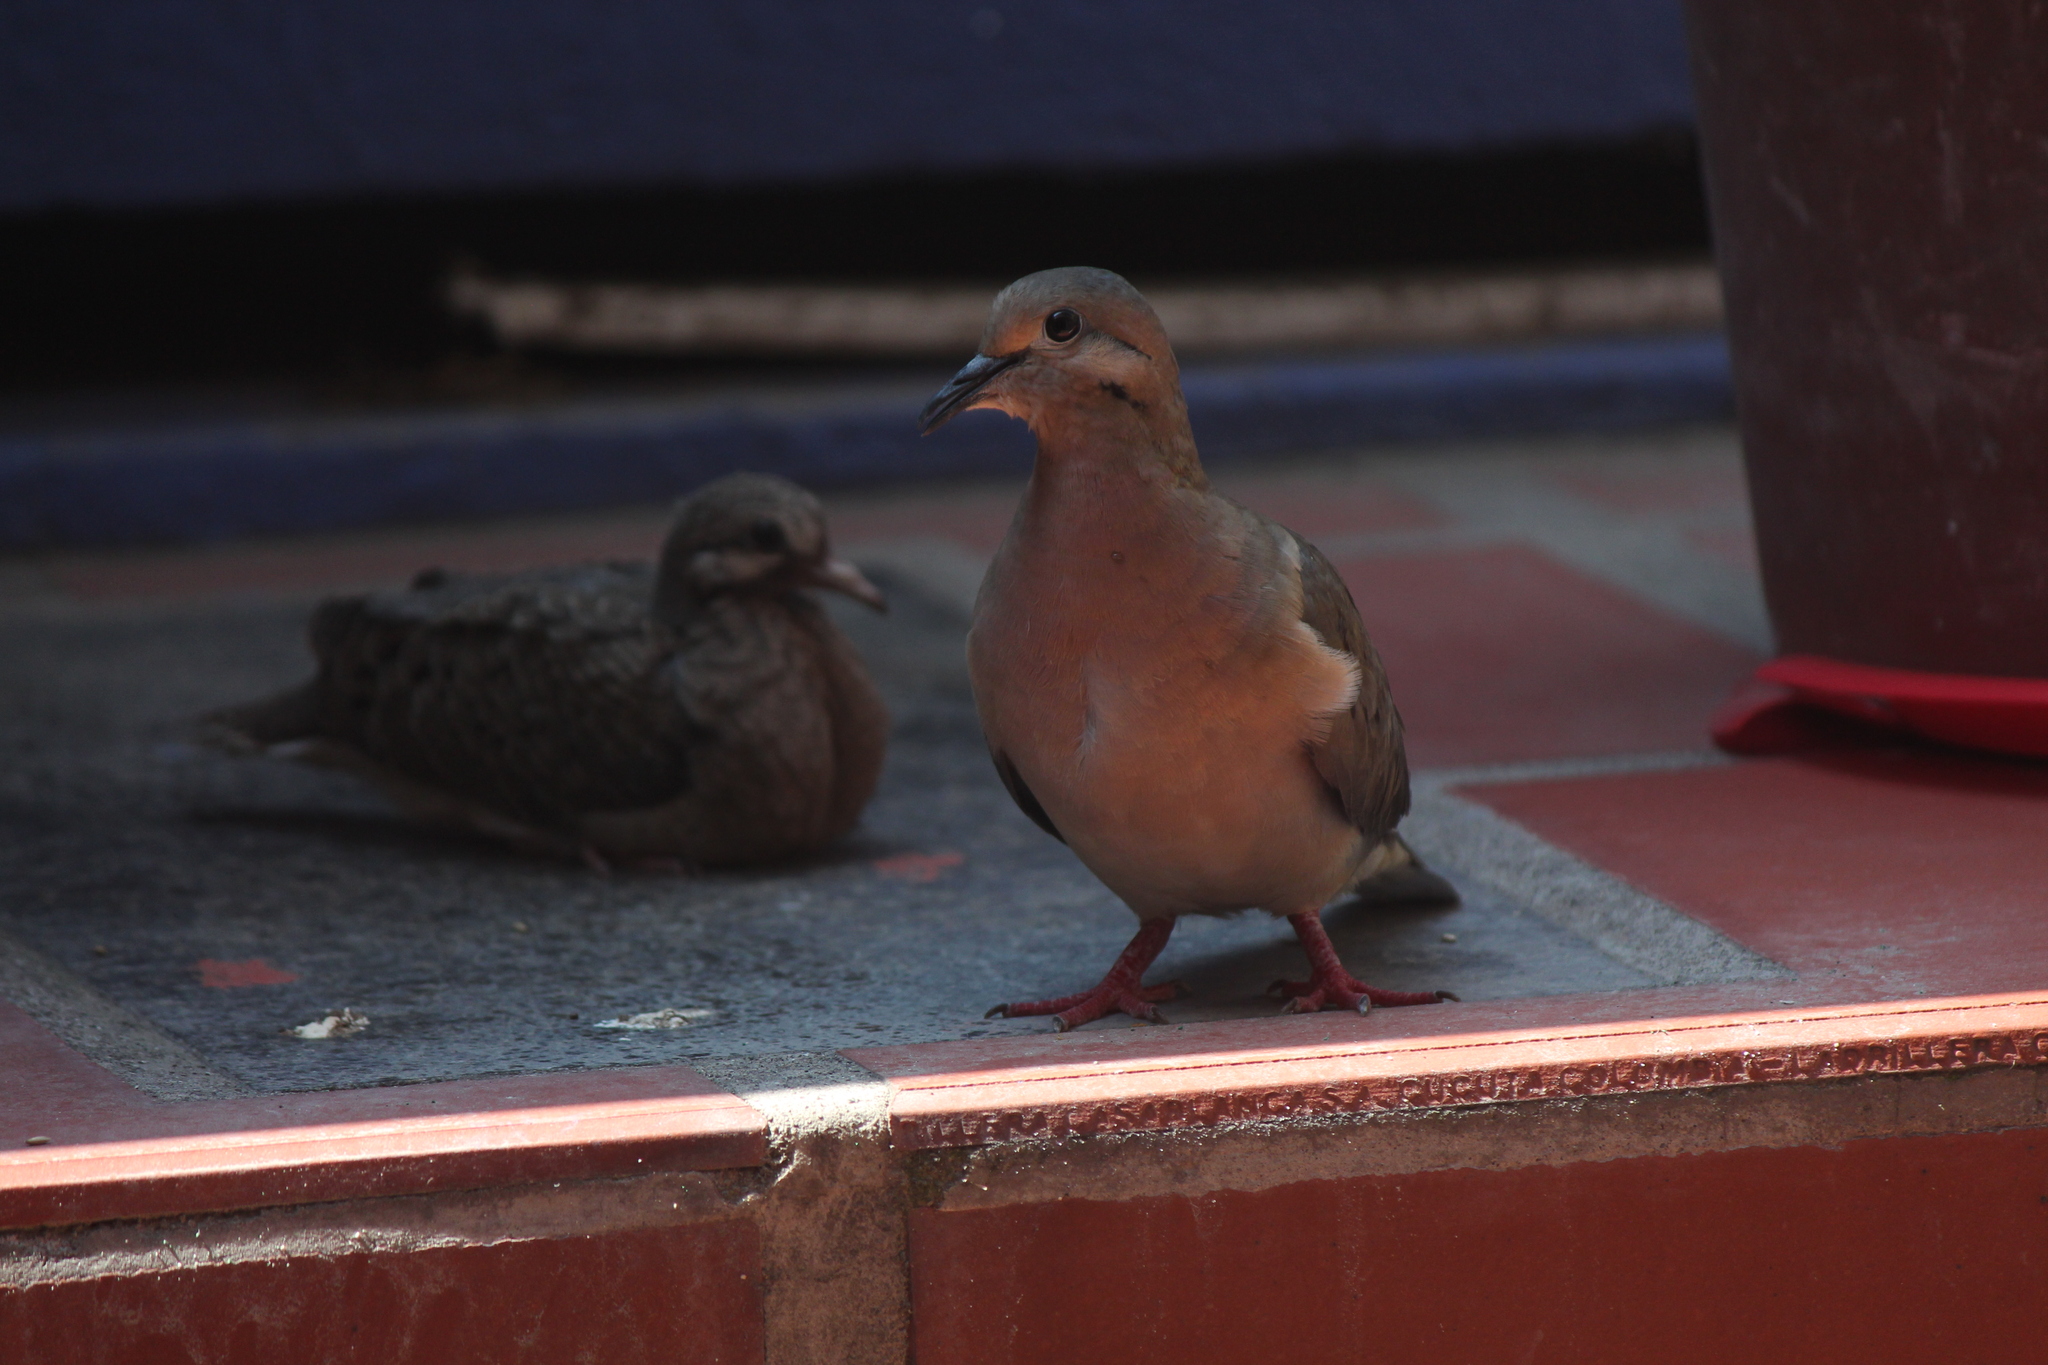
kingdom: Animalia
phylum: Chordata
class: Aves
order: Columbiformes
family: Columbidae
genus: Zenaida
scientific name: Zenaida auriculata
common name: Eared dove
